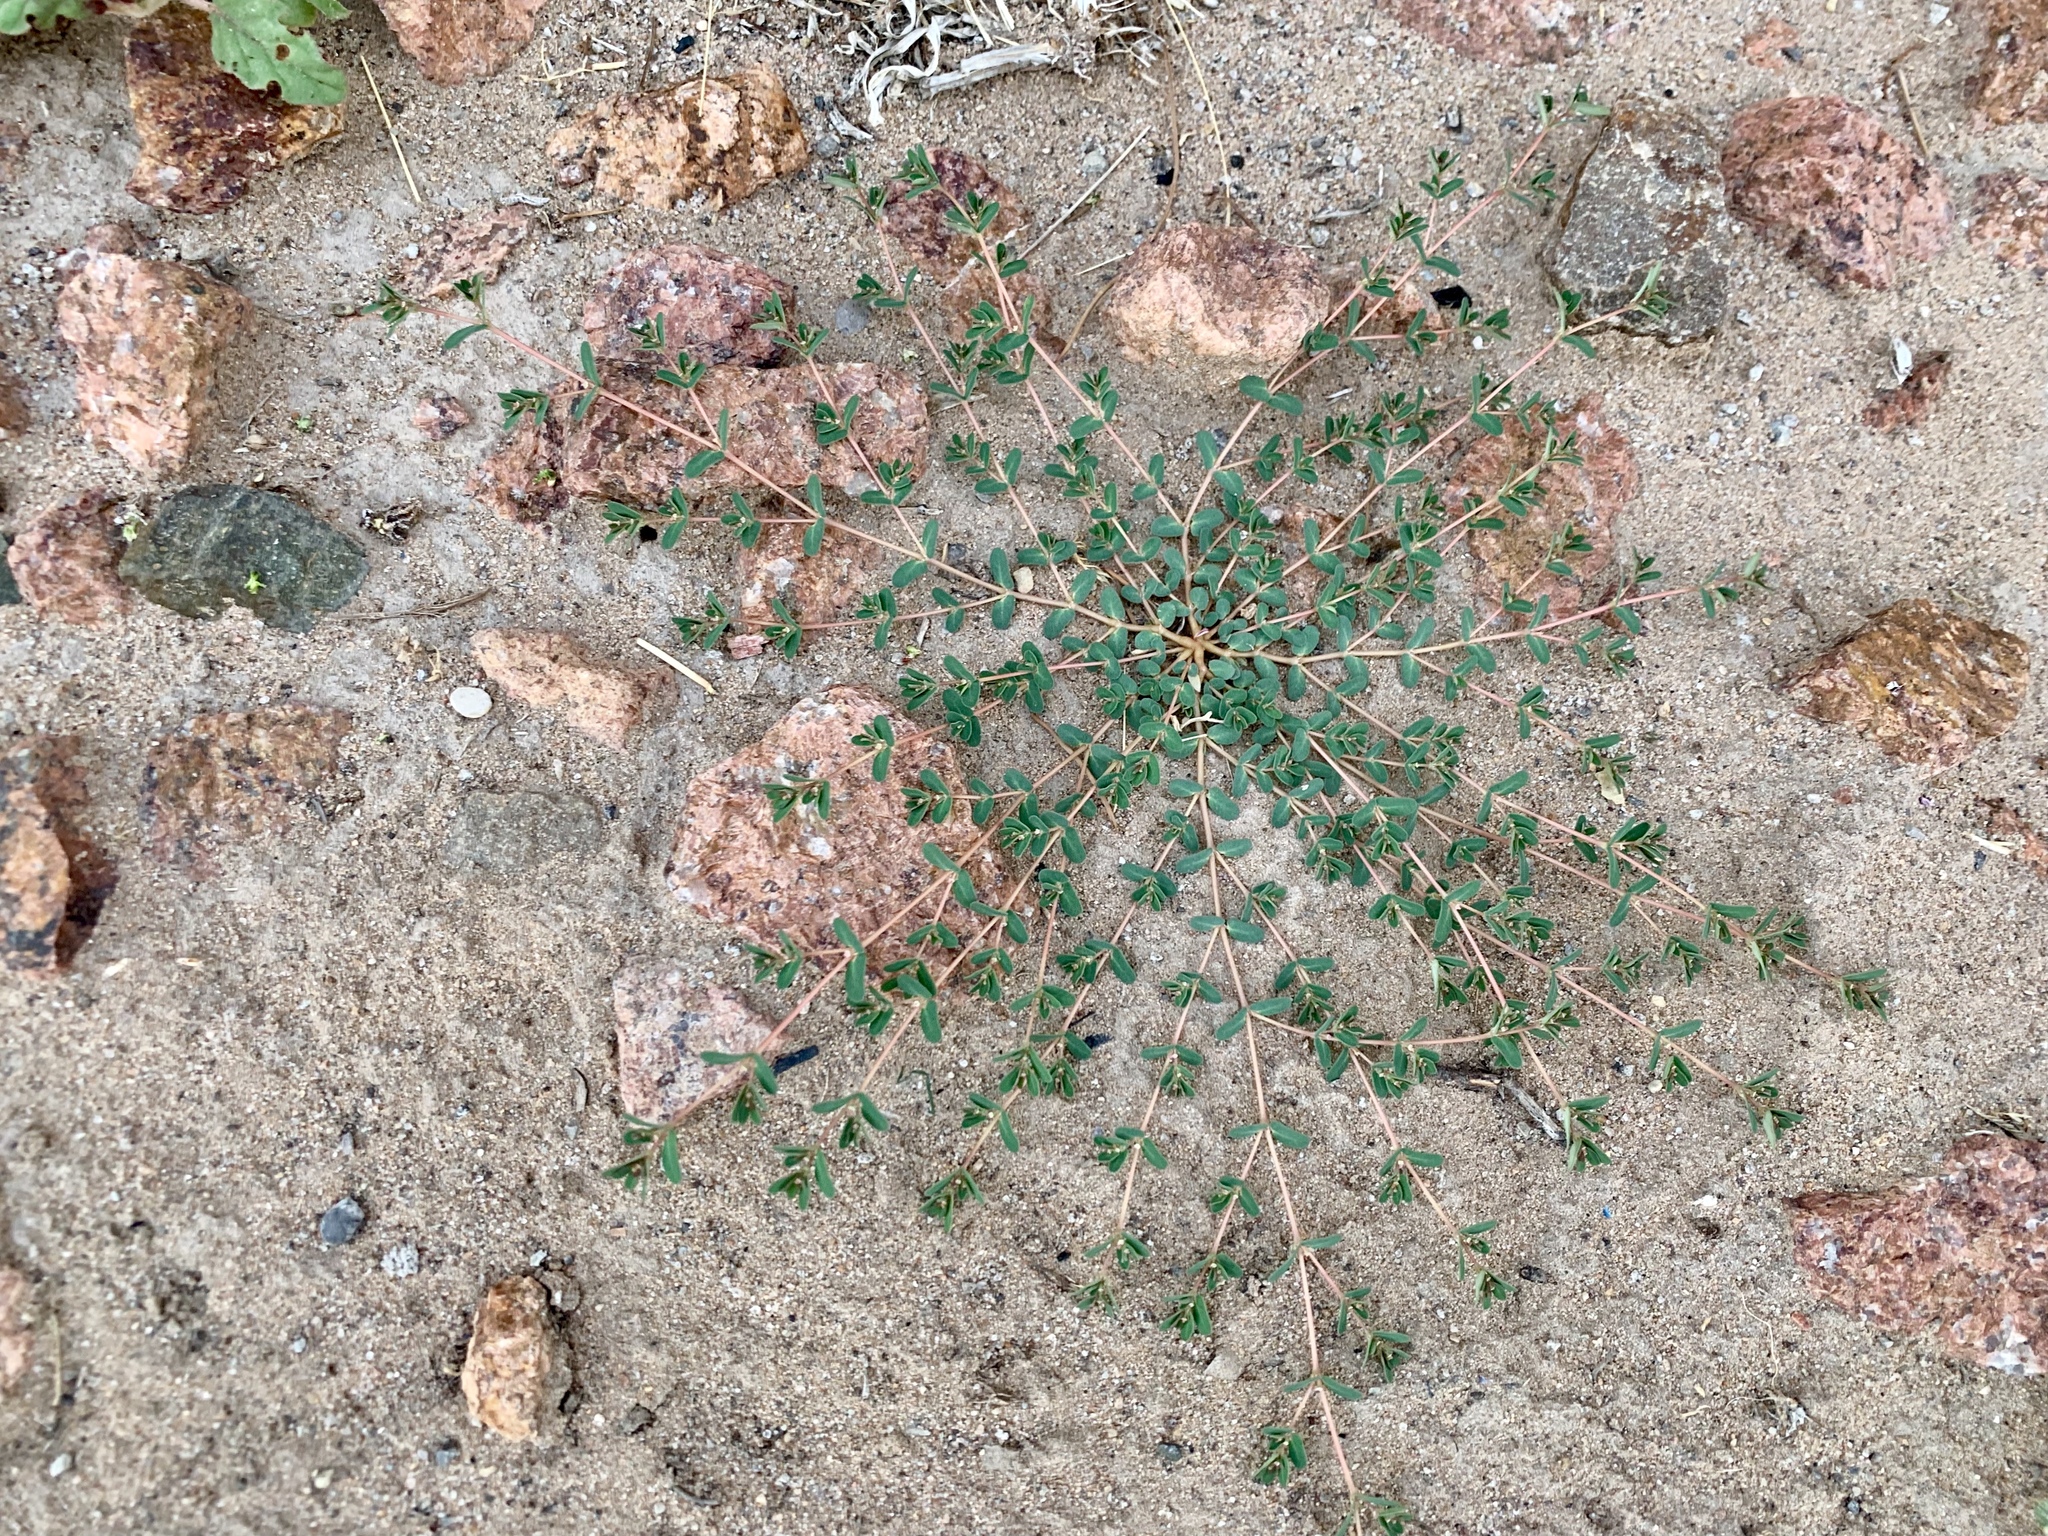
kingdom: Plantae
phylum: Tracheophyta
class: Magnoliopsida
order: Malpighiales
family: Euphorbiaceae
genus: Euphorbia
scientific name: Euphorbia glyptosperma
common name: Corrugate-seeded spurge
